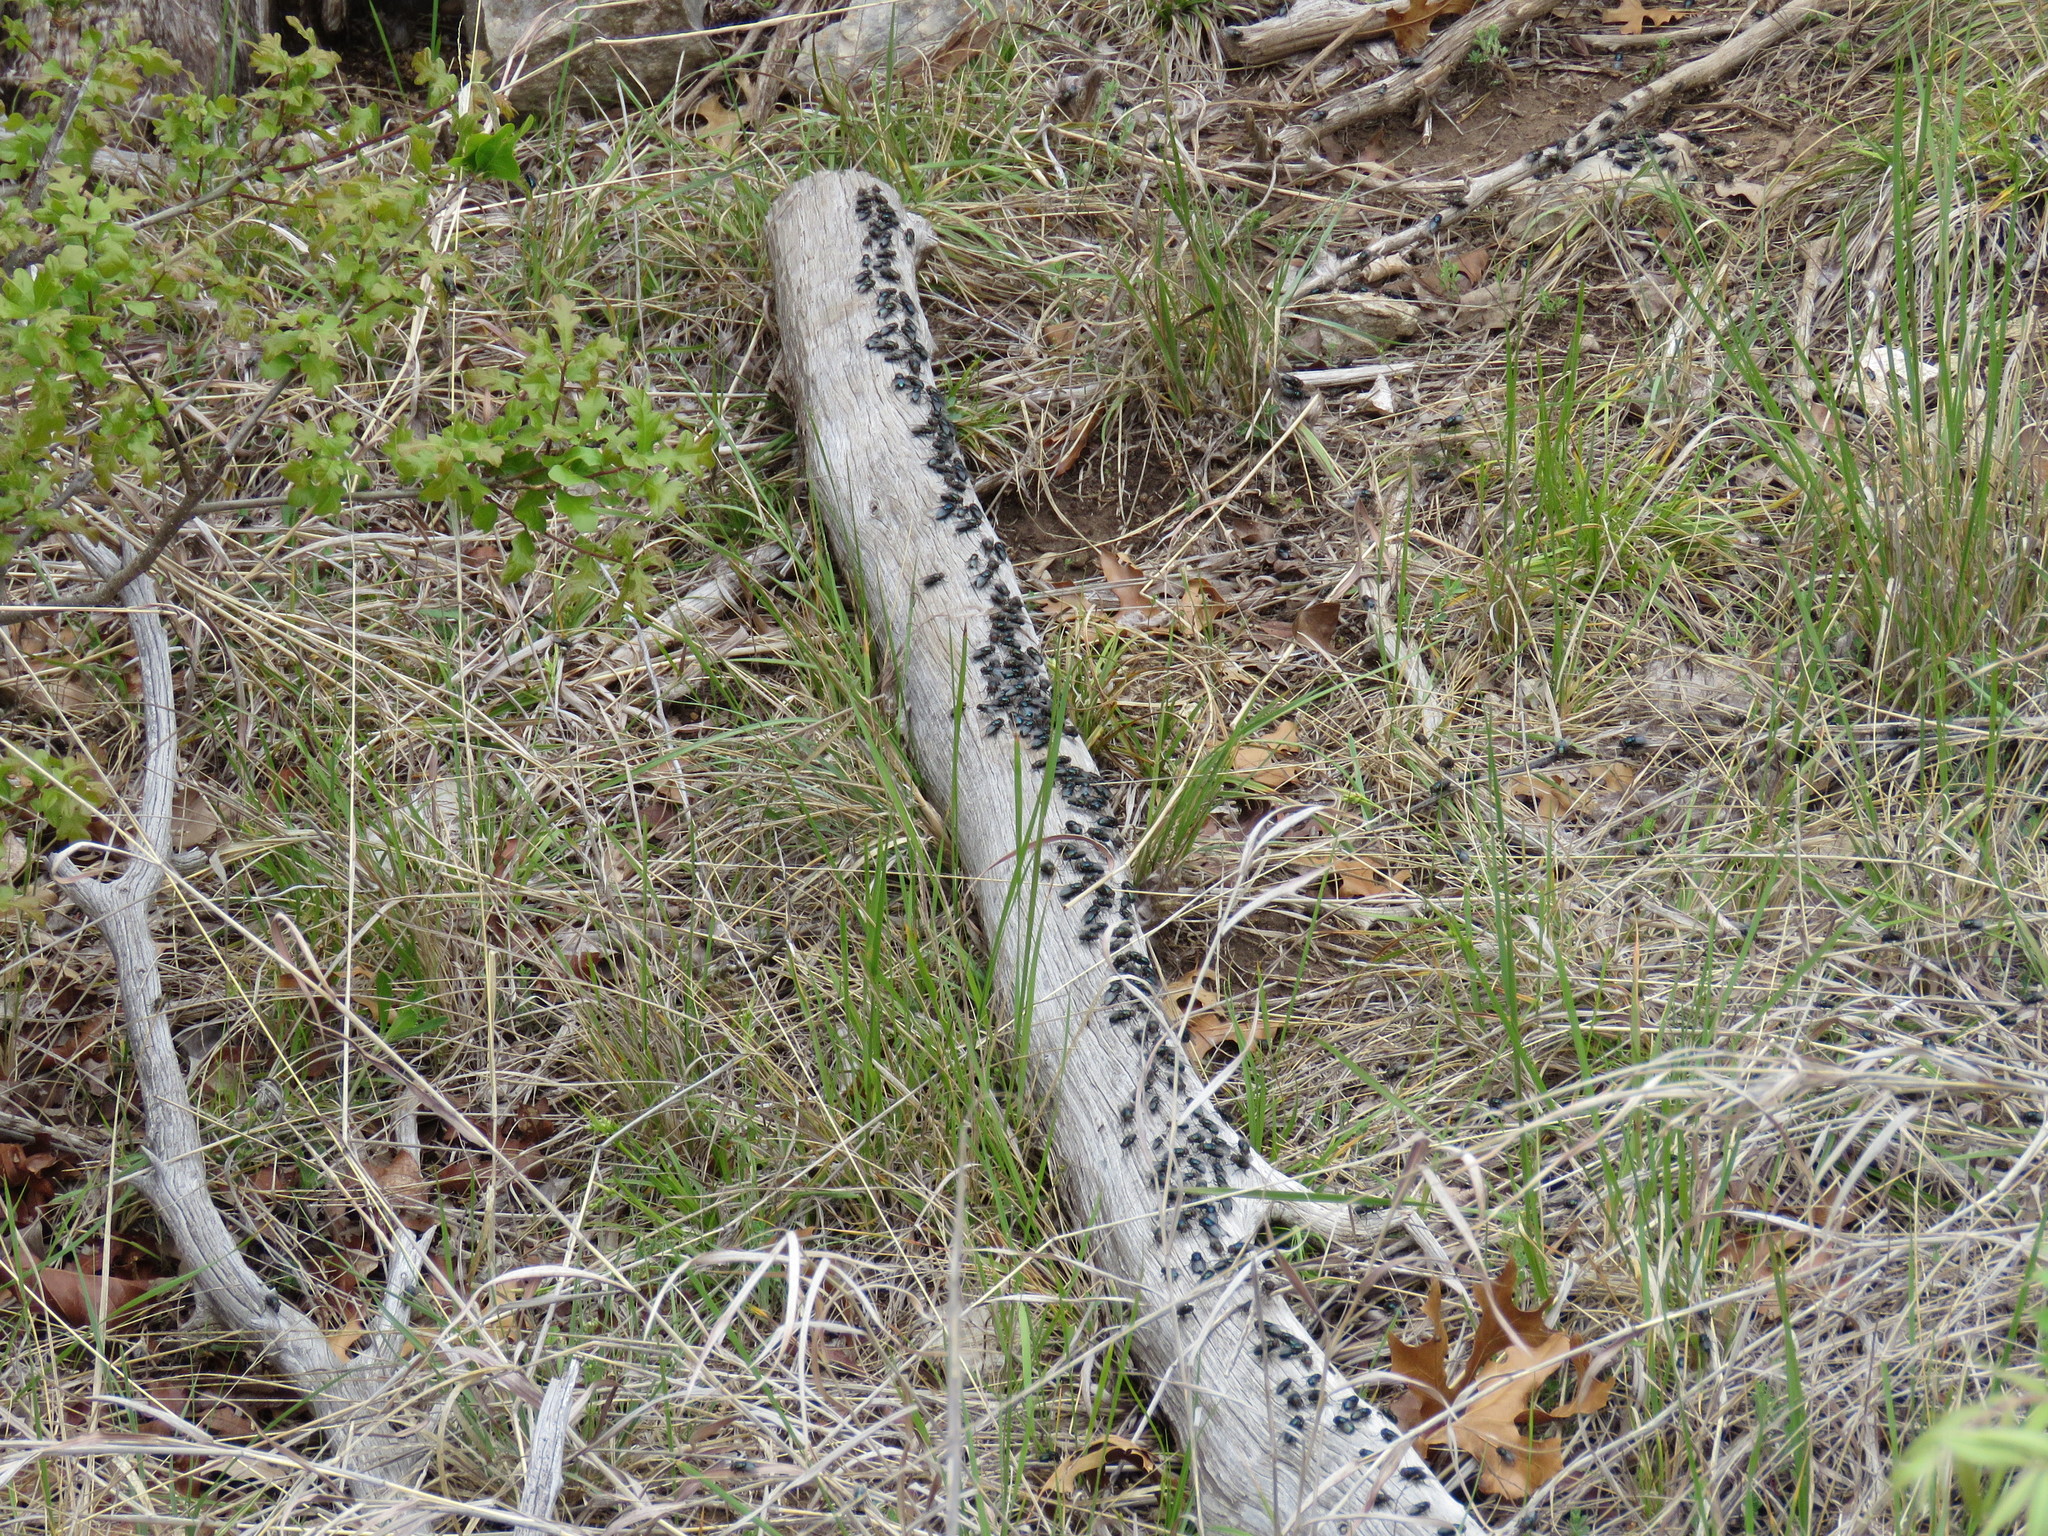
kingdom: Animalia
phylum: Arthropoda
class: Insecta
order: Diptera
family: Calliphoridae
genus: Phormia
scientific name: Phormia regina
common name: Black blow fly
